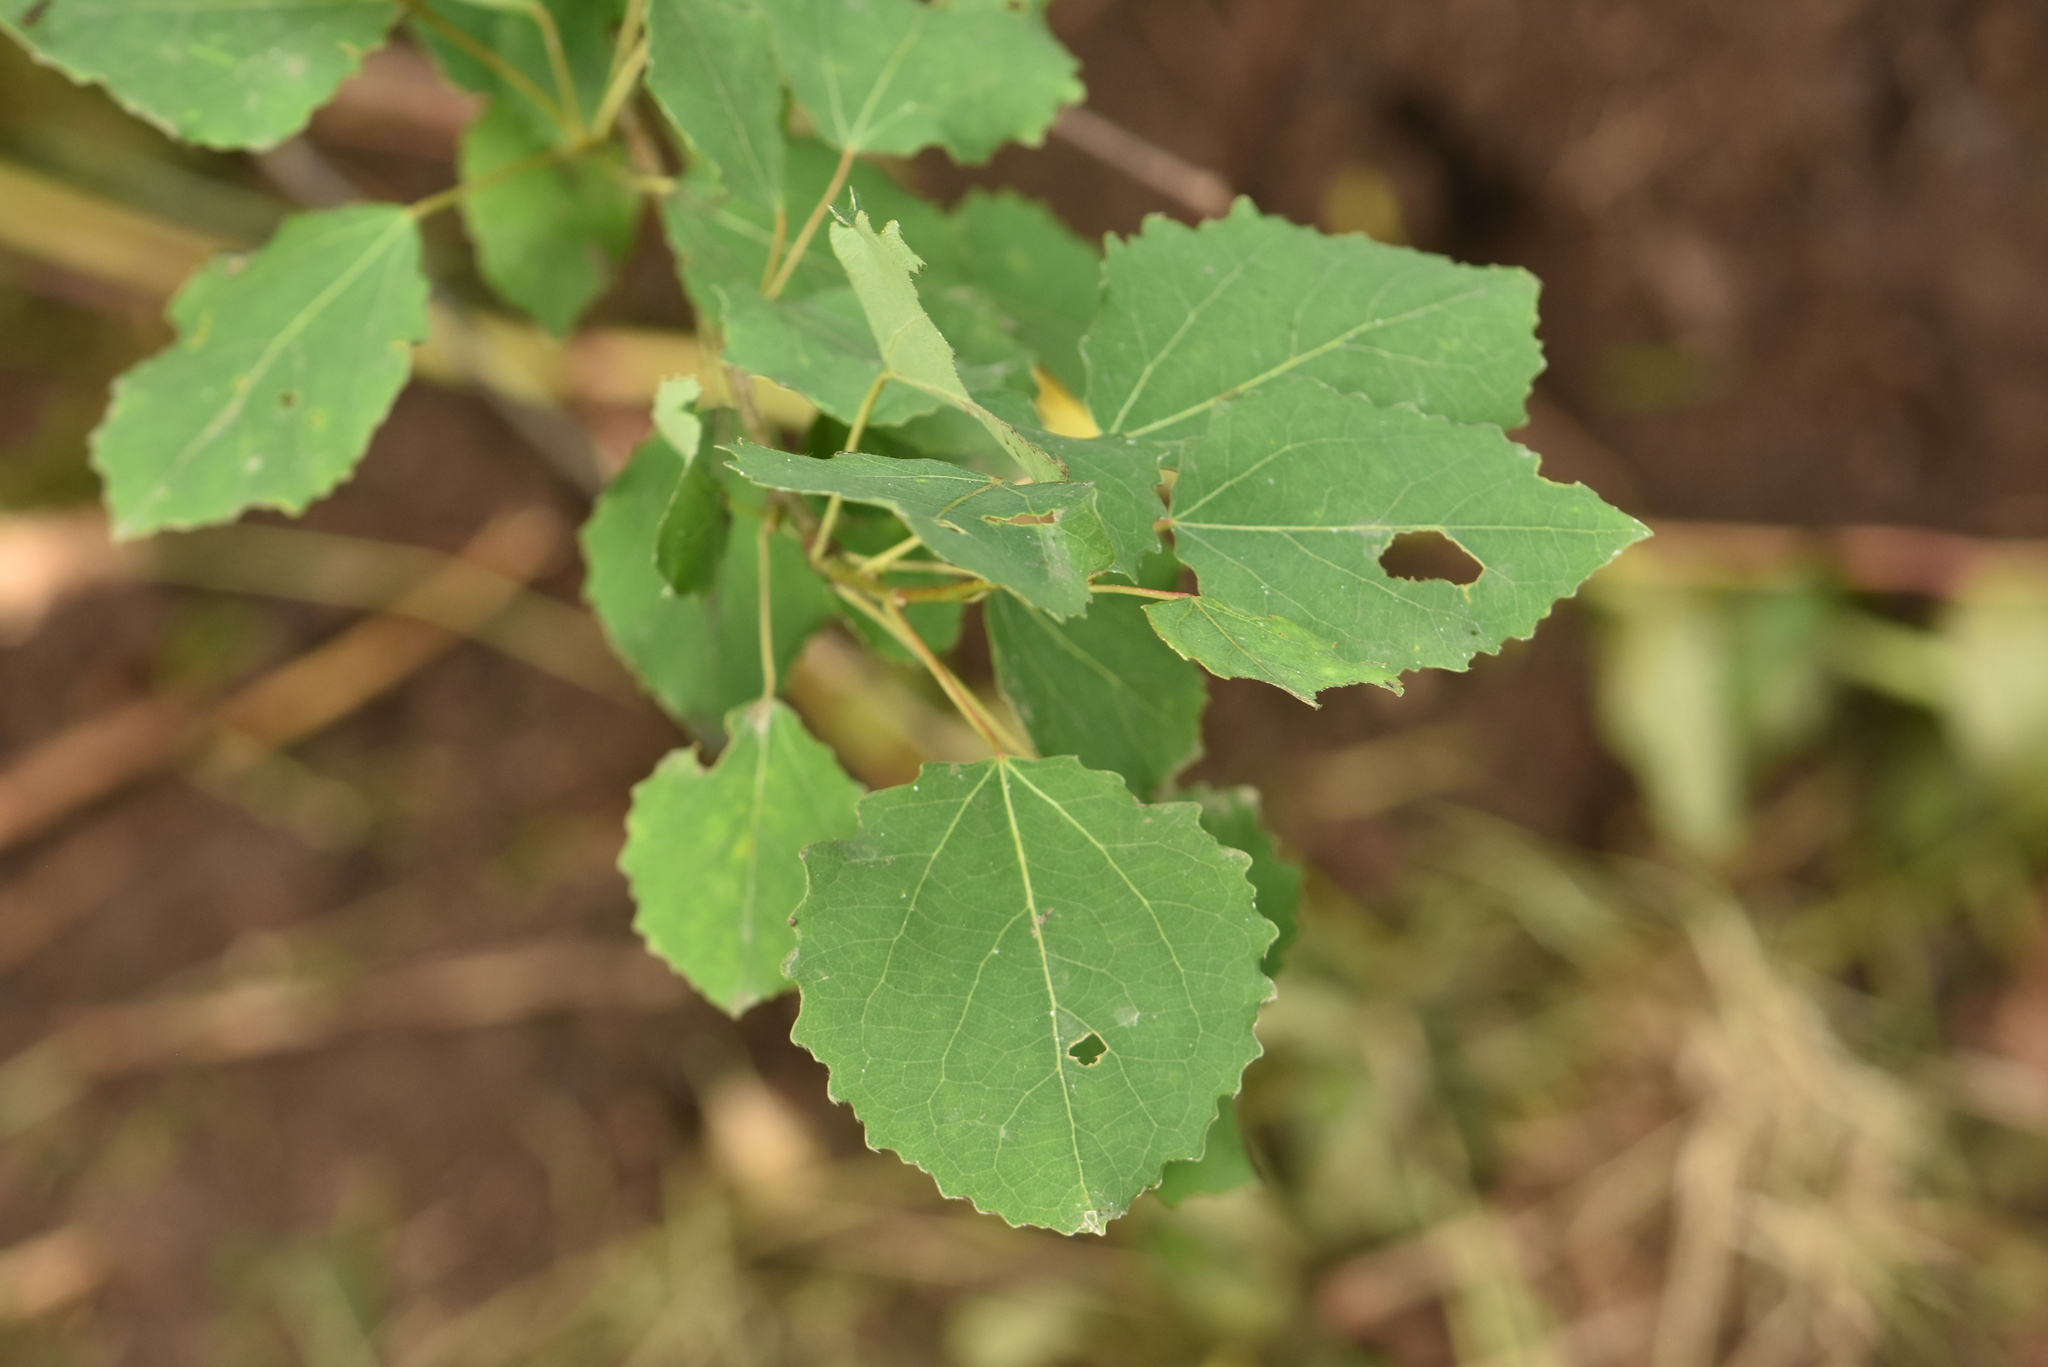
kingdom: Plantae
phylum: Tracheophyta
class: Magnoliopsida
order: Malpighiales
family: Salicaceae
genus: Populus
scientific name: Populus tremula
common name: European aspen
